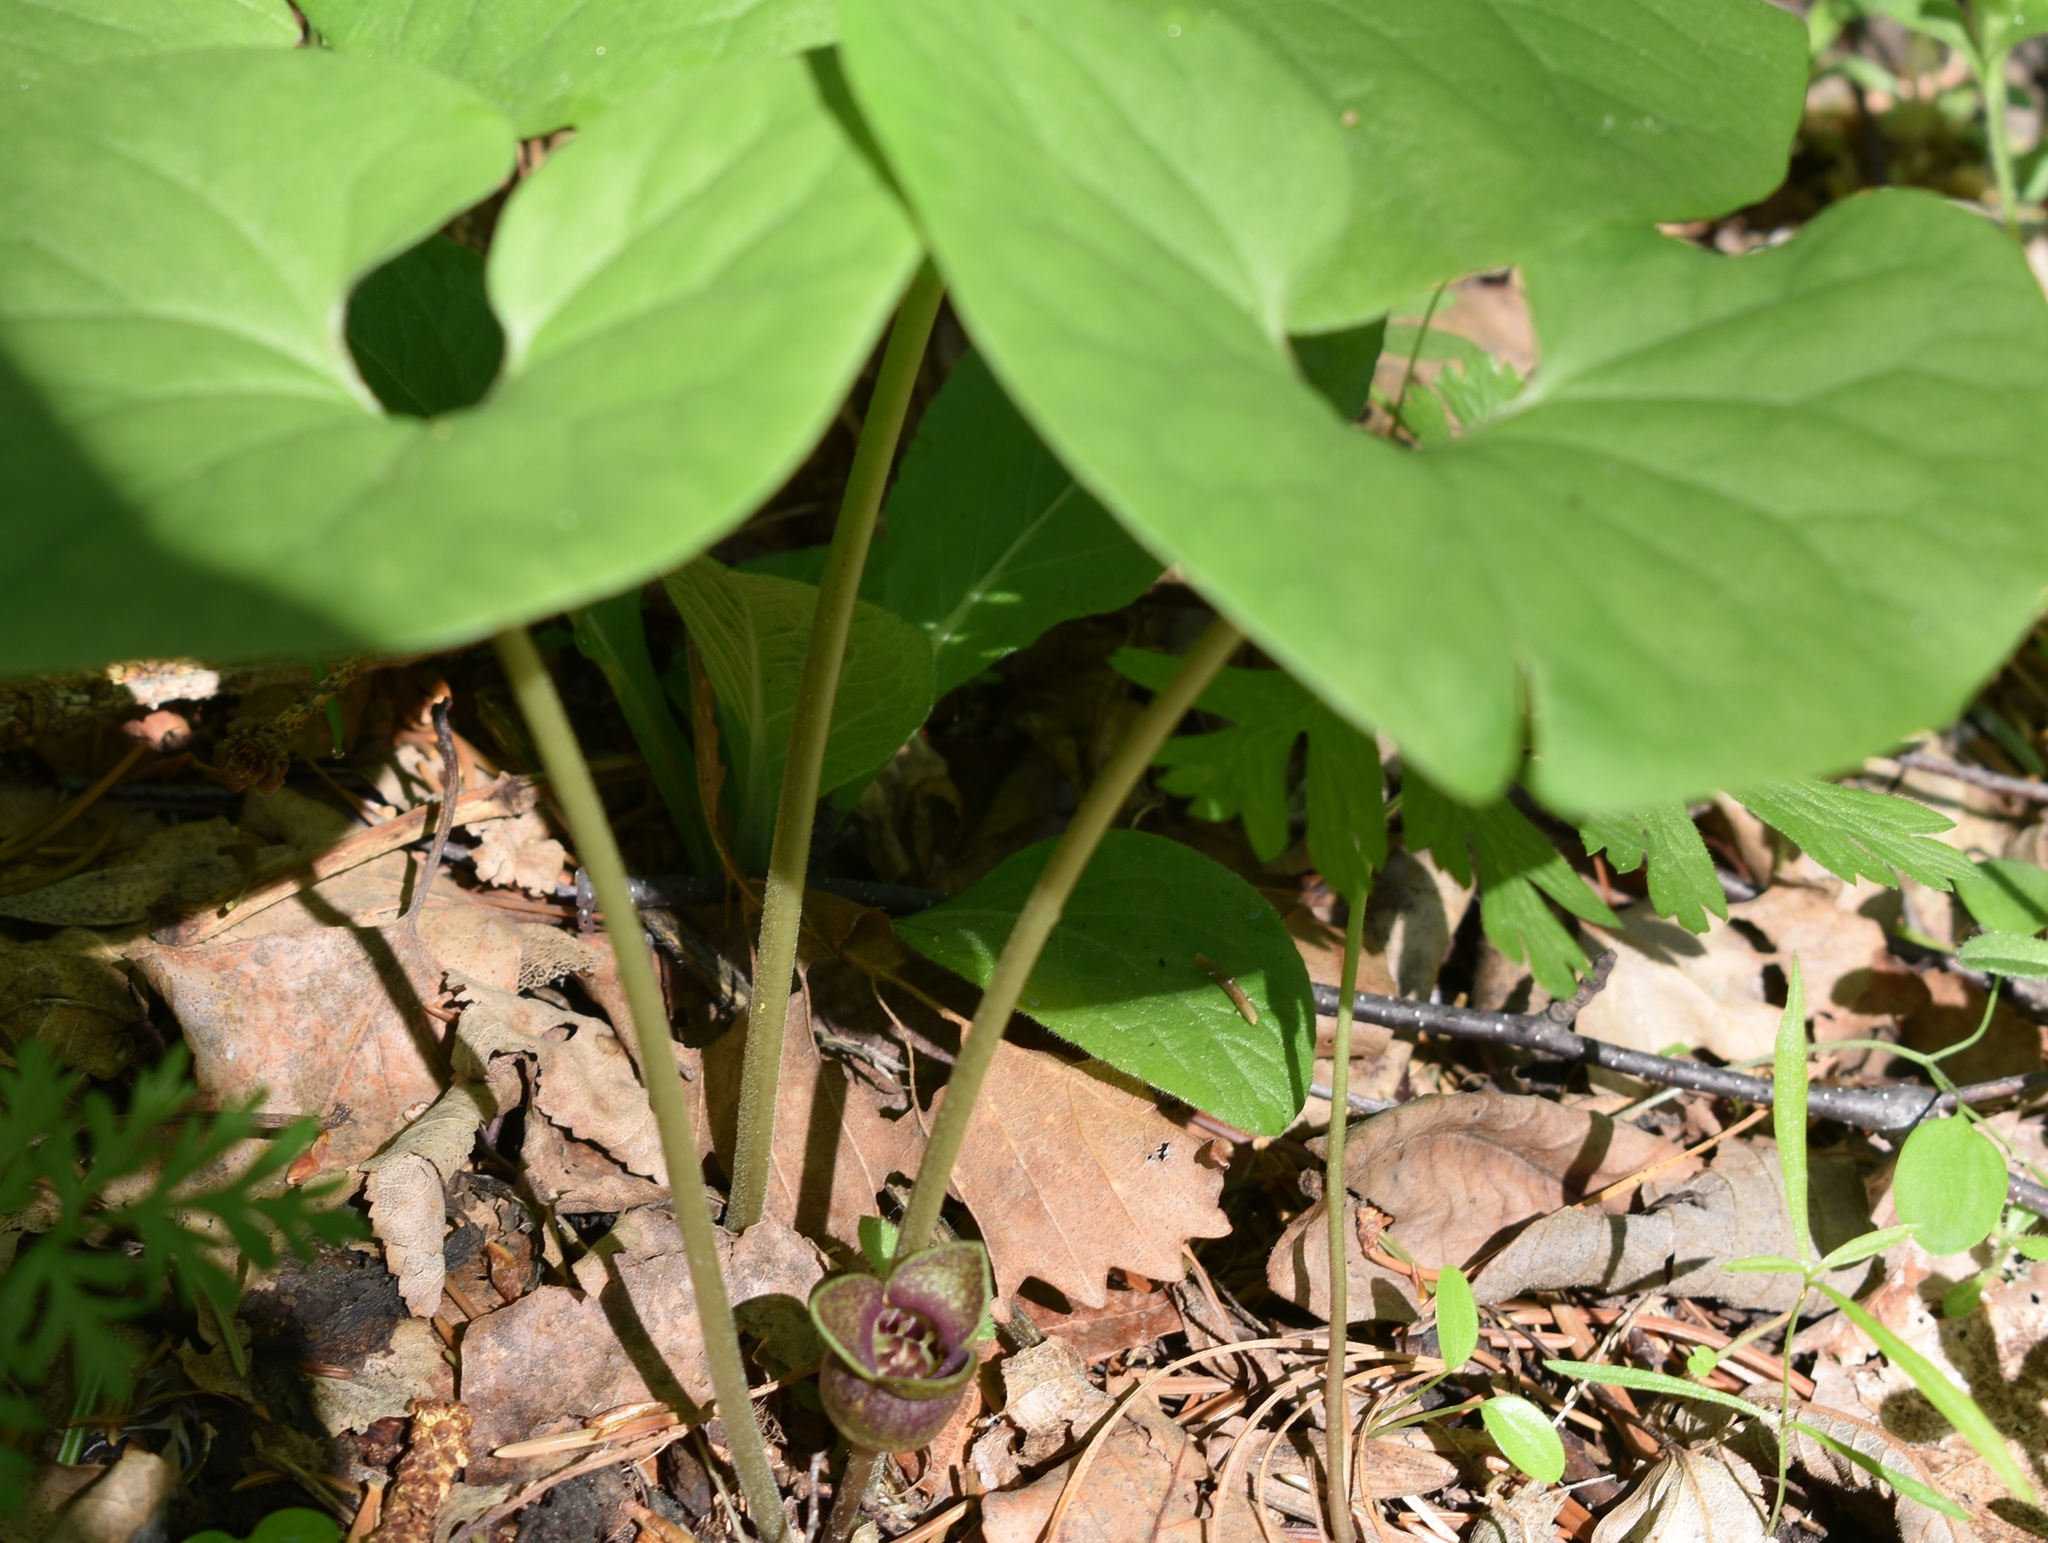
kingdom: Plantae
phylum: Tracheophyta
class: Magnoliopsida
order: Piperales
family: Aristolochiaceae
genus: Asarum
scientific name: Asarum sieboldii
